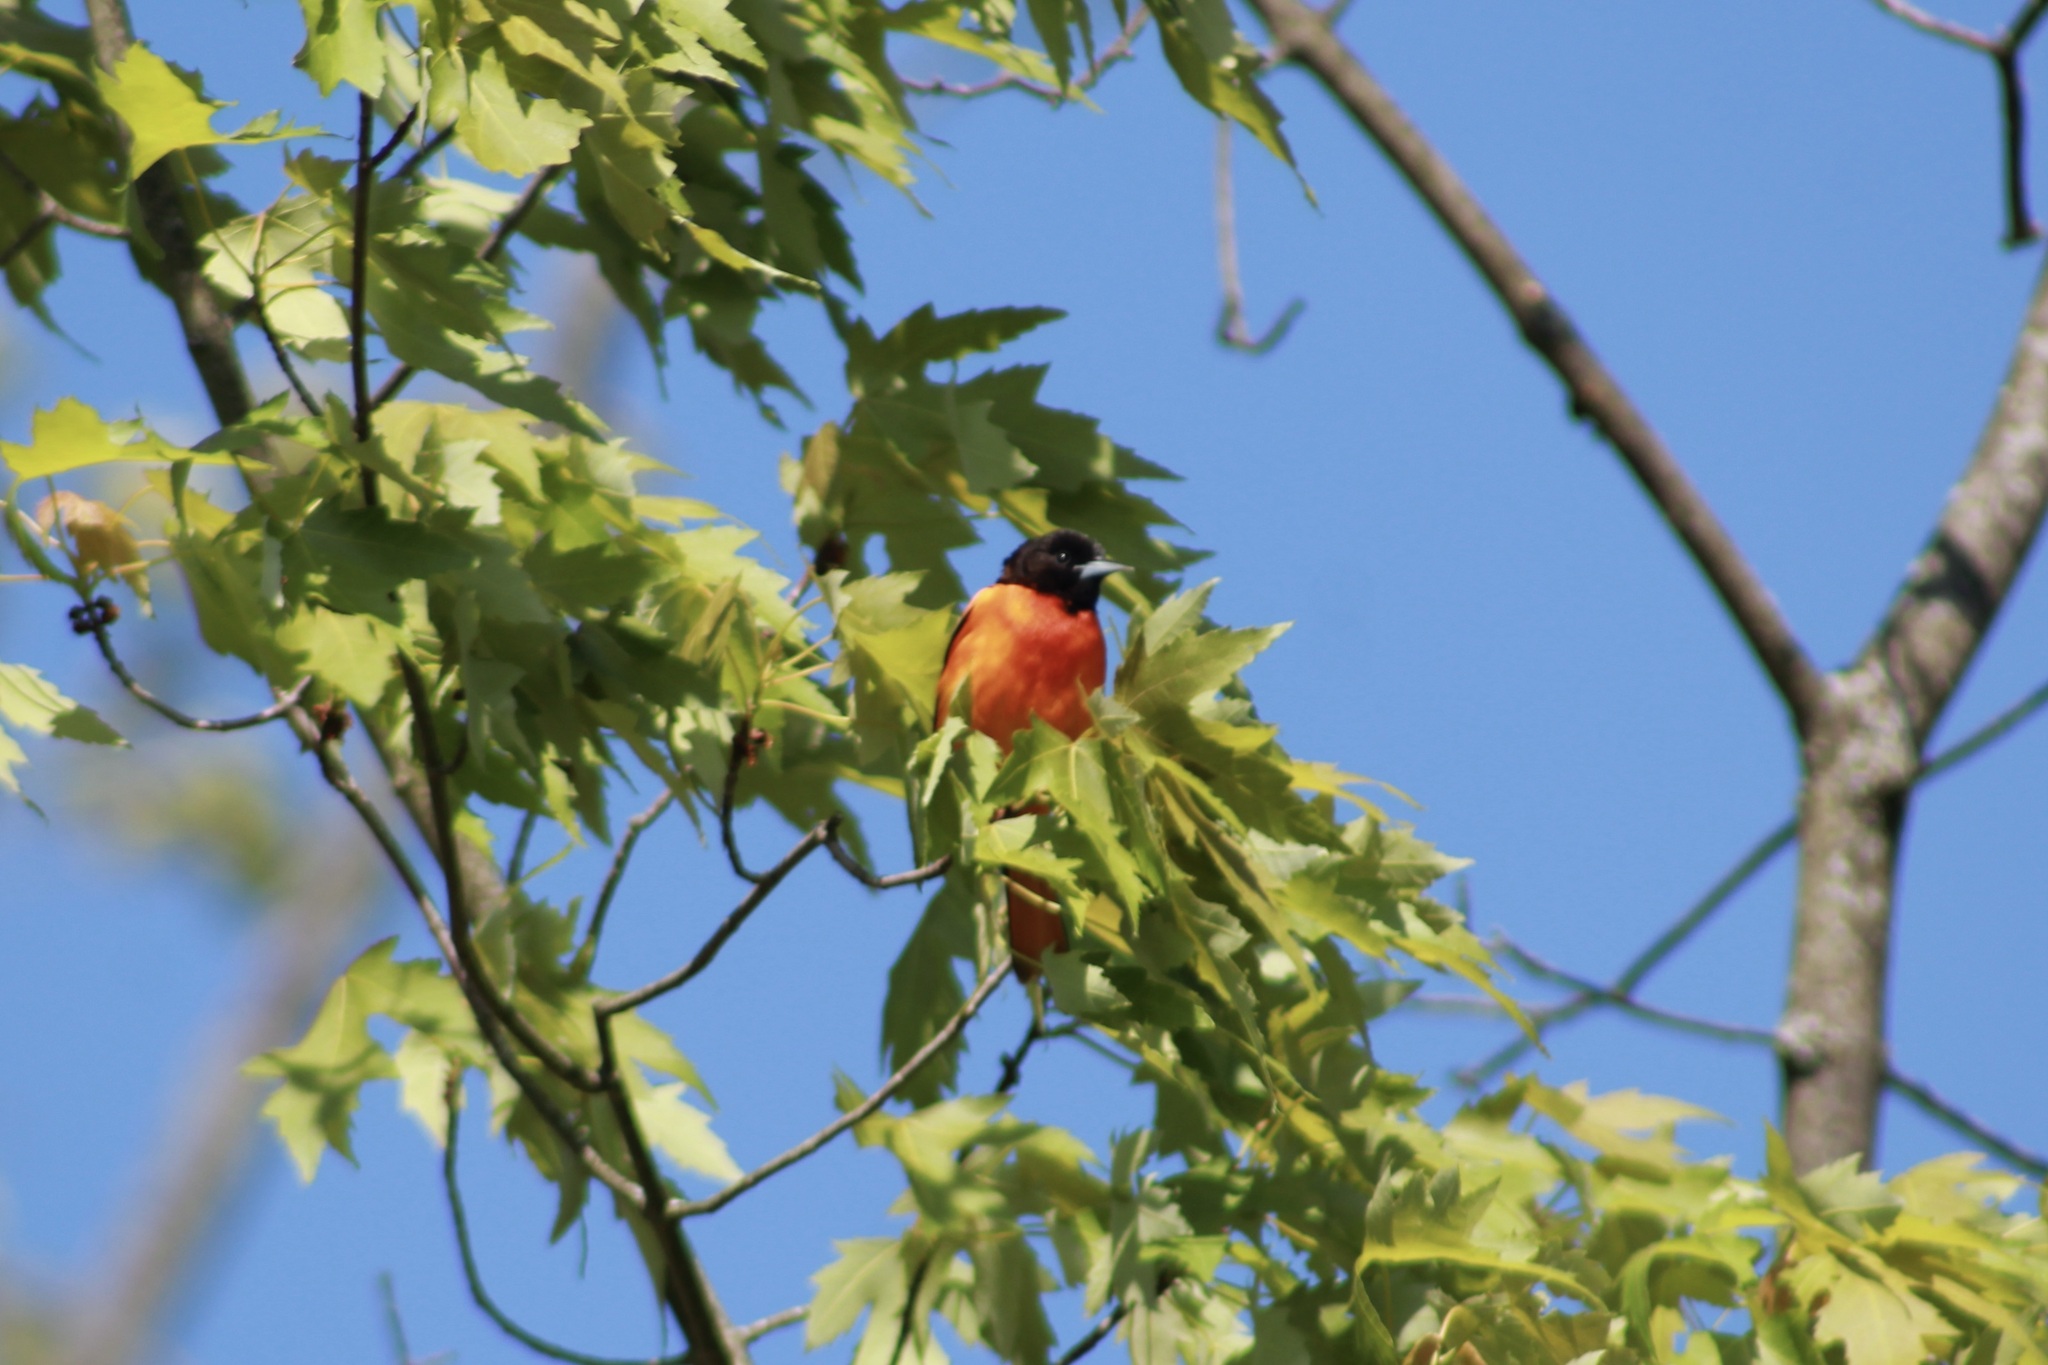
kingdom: Animalia
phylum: Chordata
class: Aves
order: Passeriformes
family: Icteridae
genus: Icterus
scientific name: Icterus galbula
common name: Baltimore oriole
